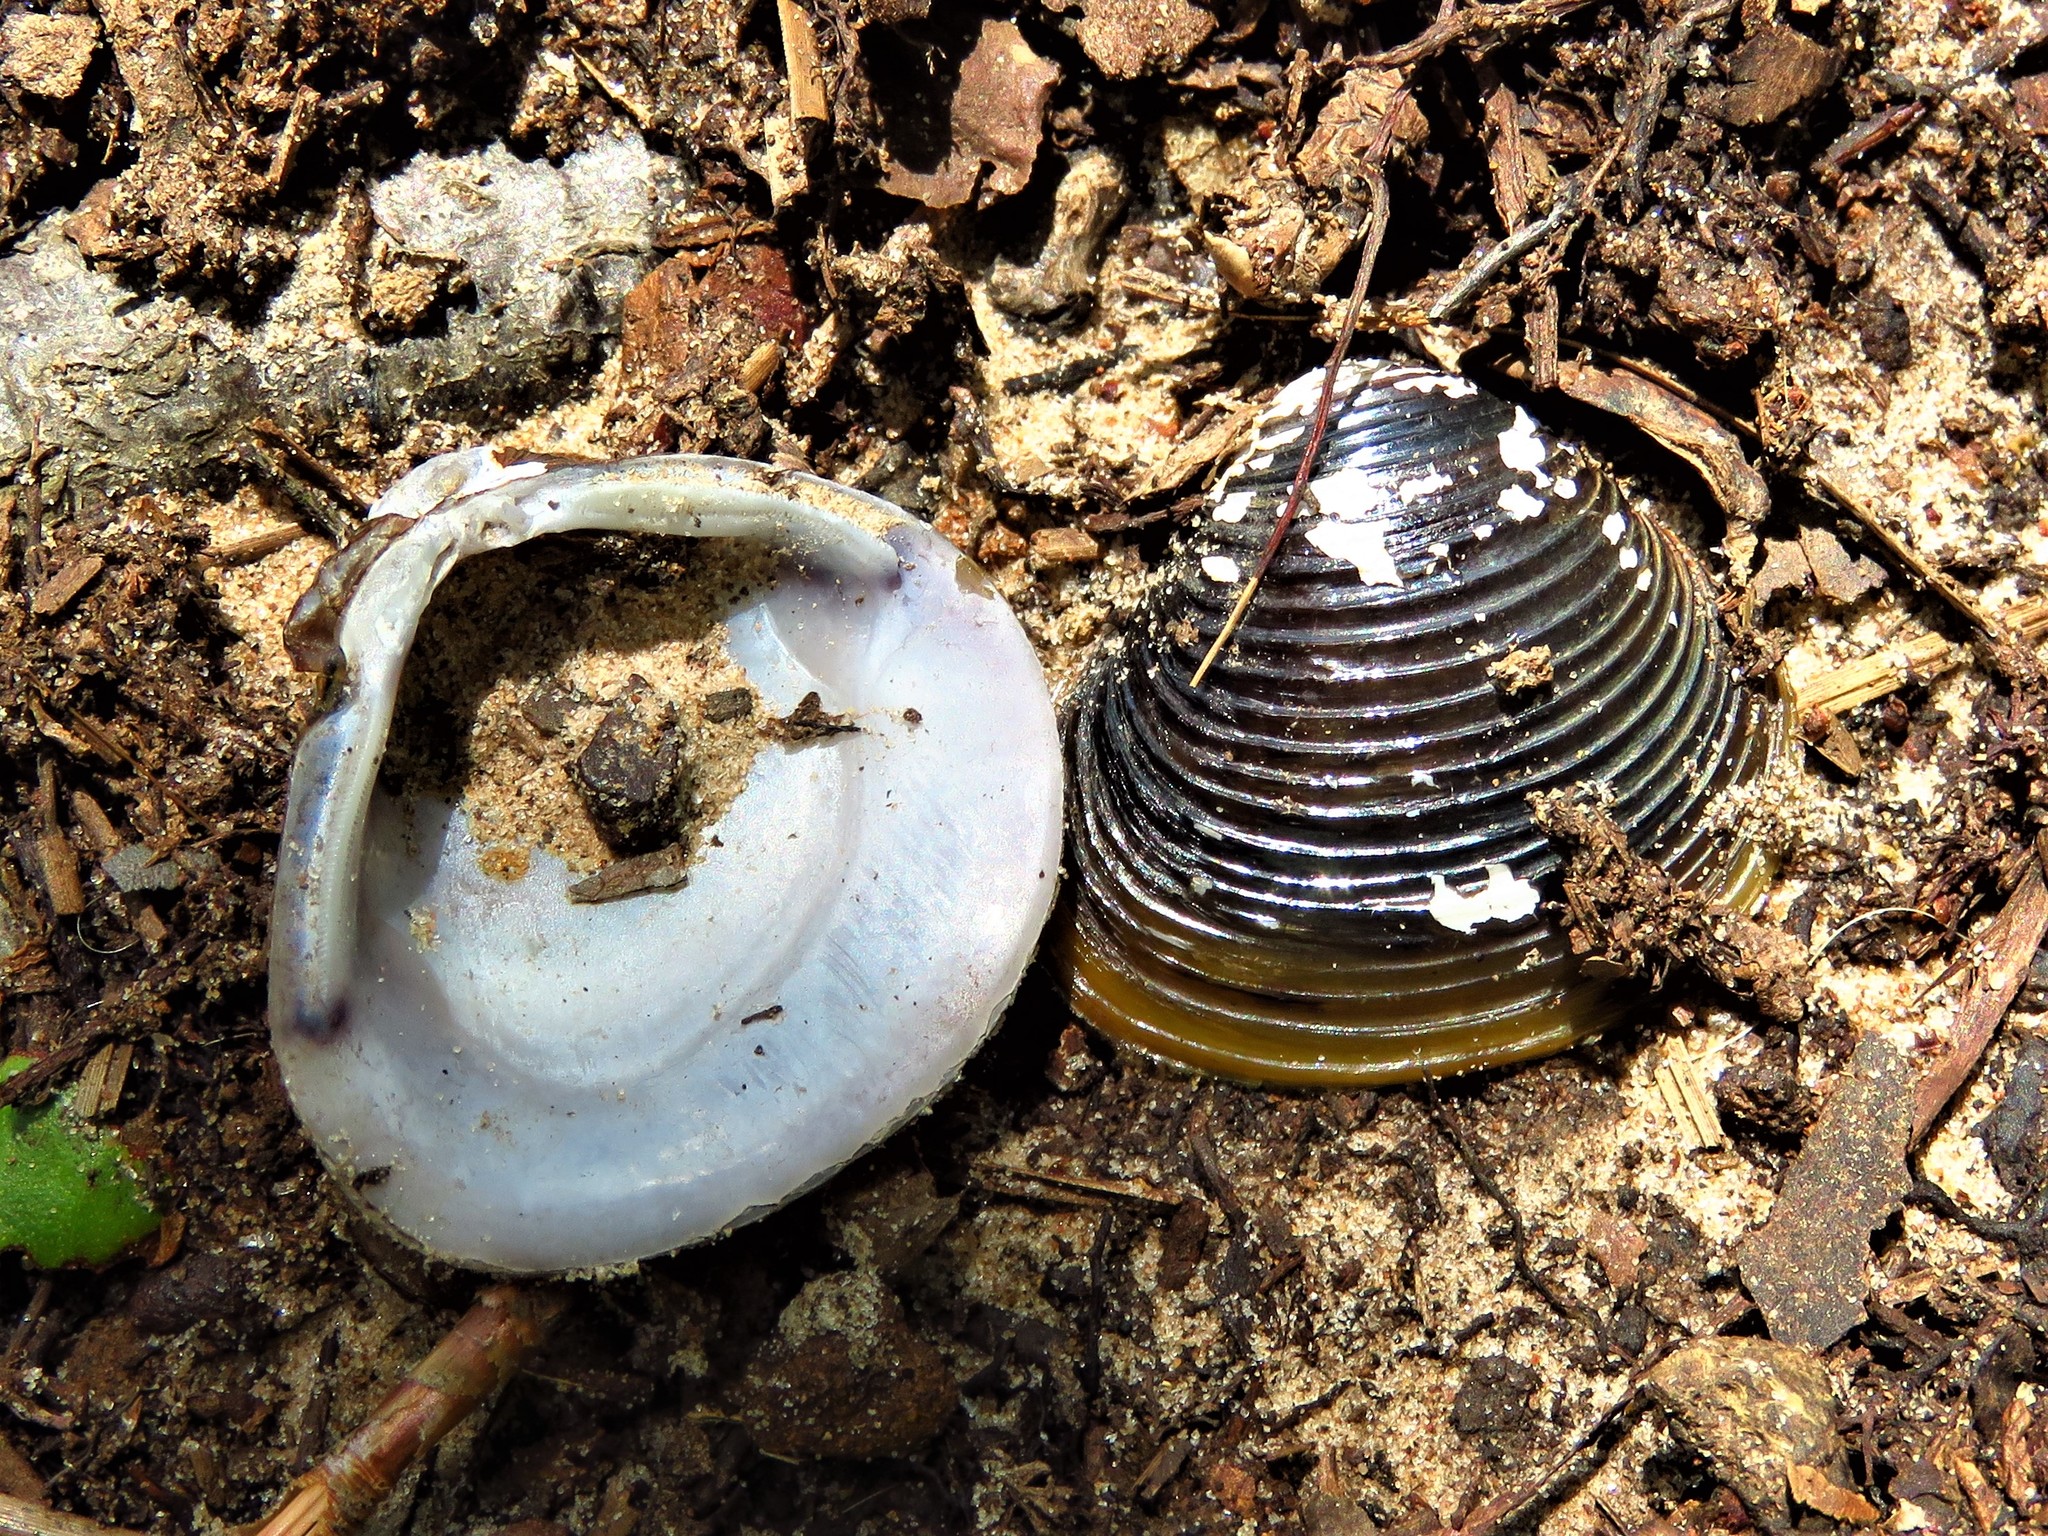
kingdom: Animalia
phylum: Mollusca
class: Bivalvia
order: Venerida
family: Cyrenidae
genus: Corbicula
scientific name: Corbicula fluminea
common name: Asian clam
